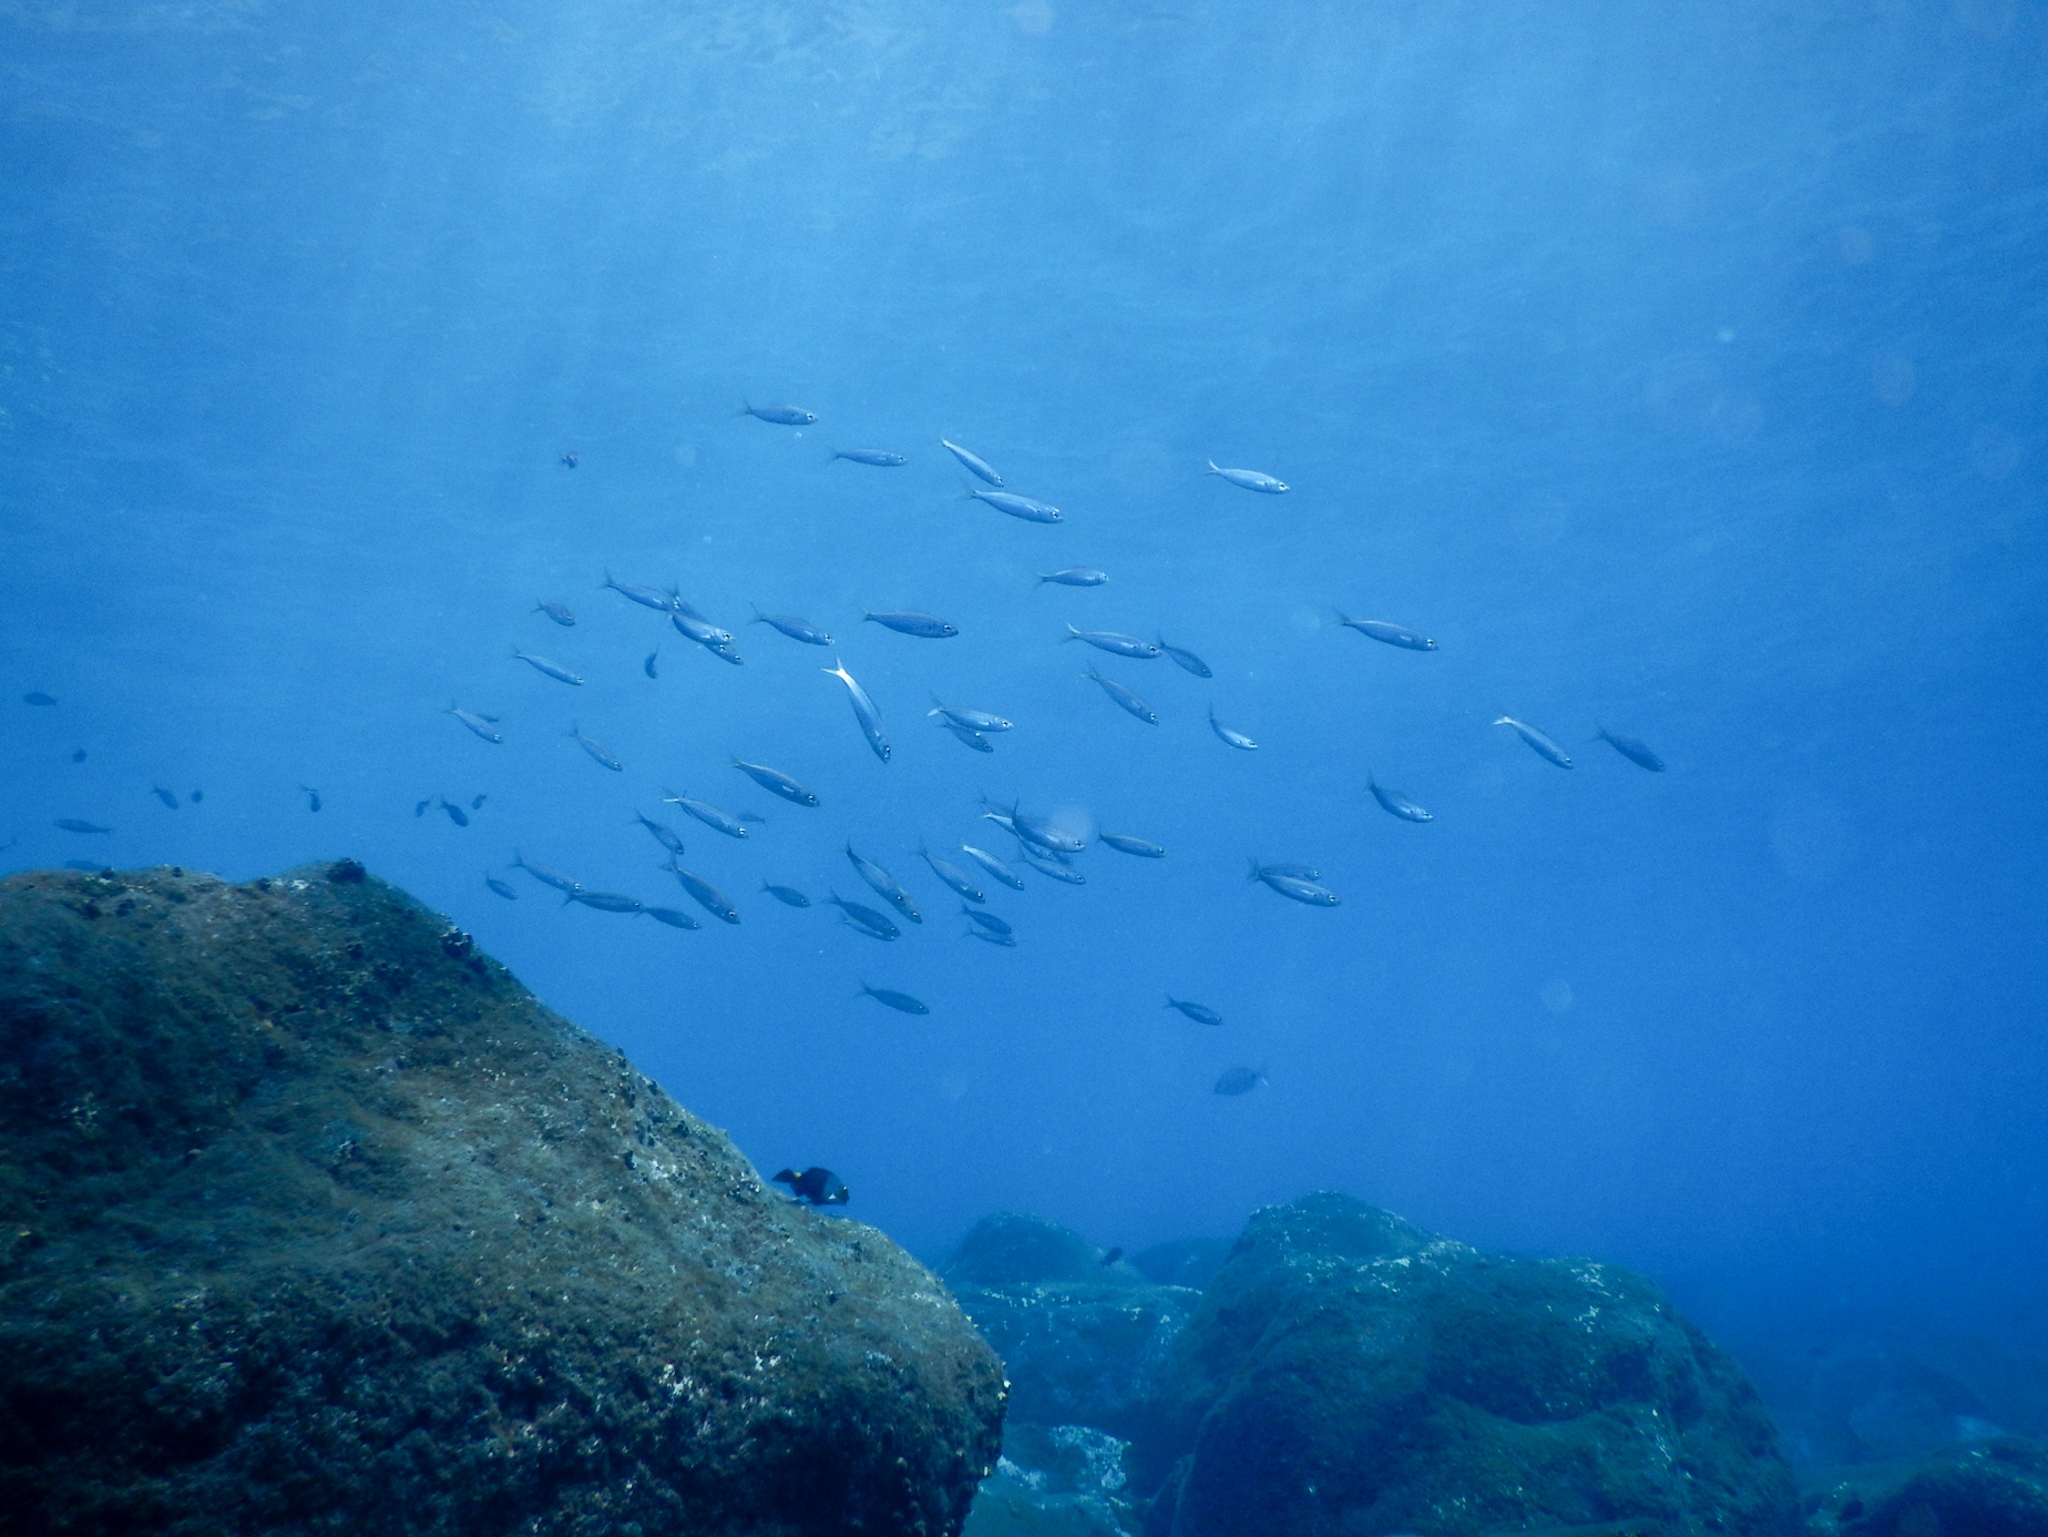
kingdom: Animalia
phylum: Chordata
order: Perciformes
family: Sparidae
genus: Boops
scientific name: Boops boops
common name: Bogue
